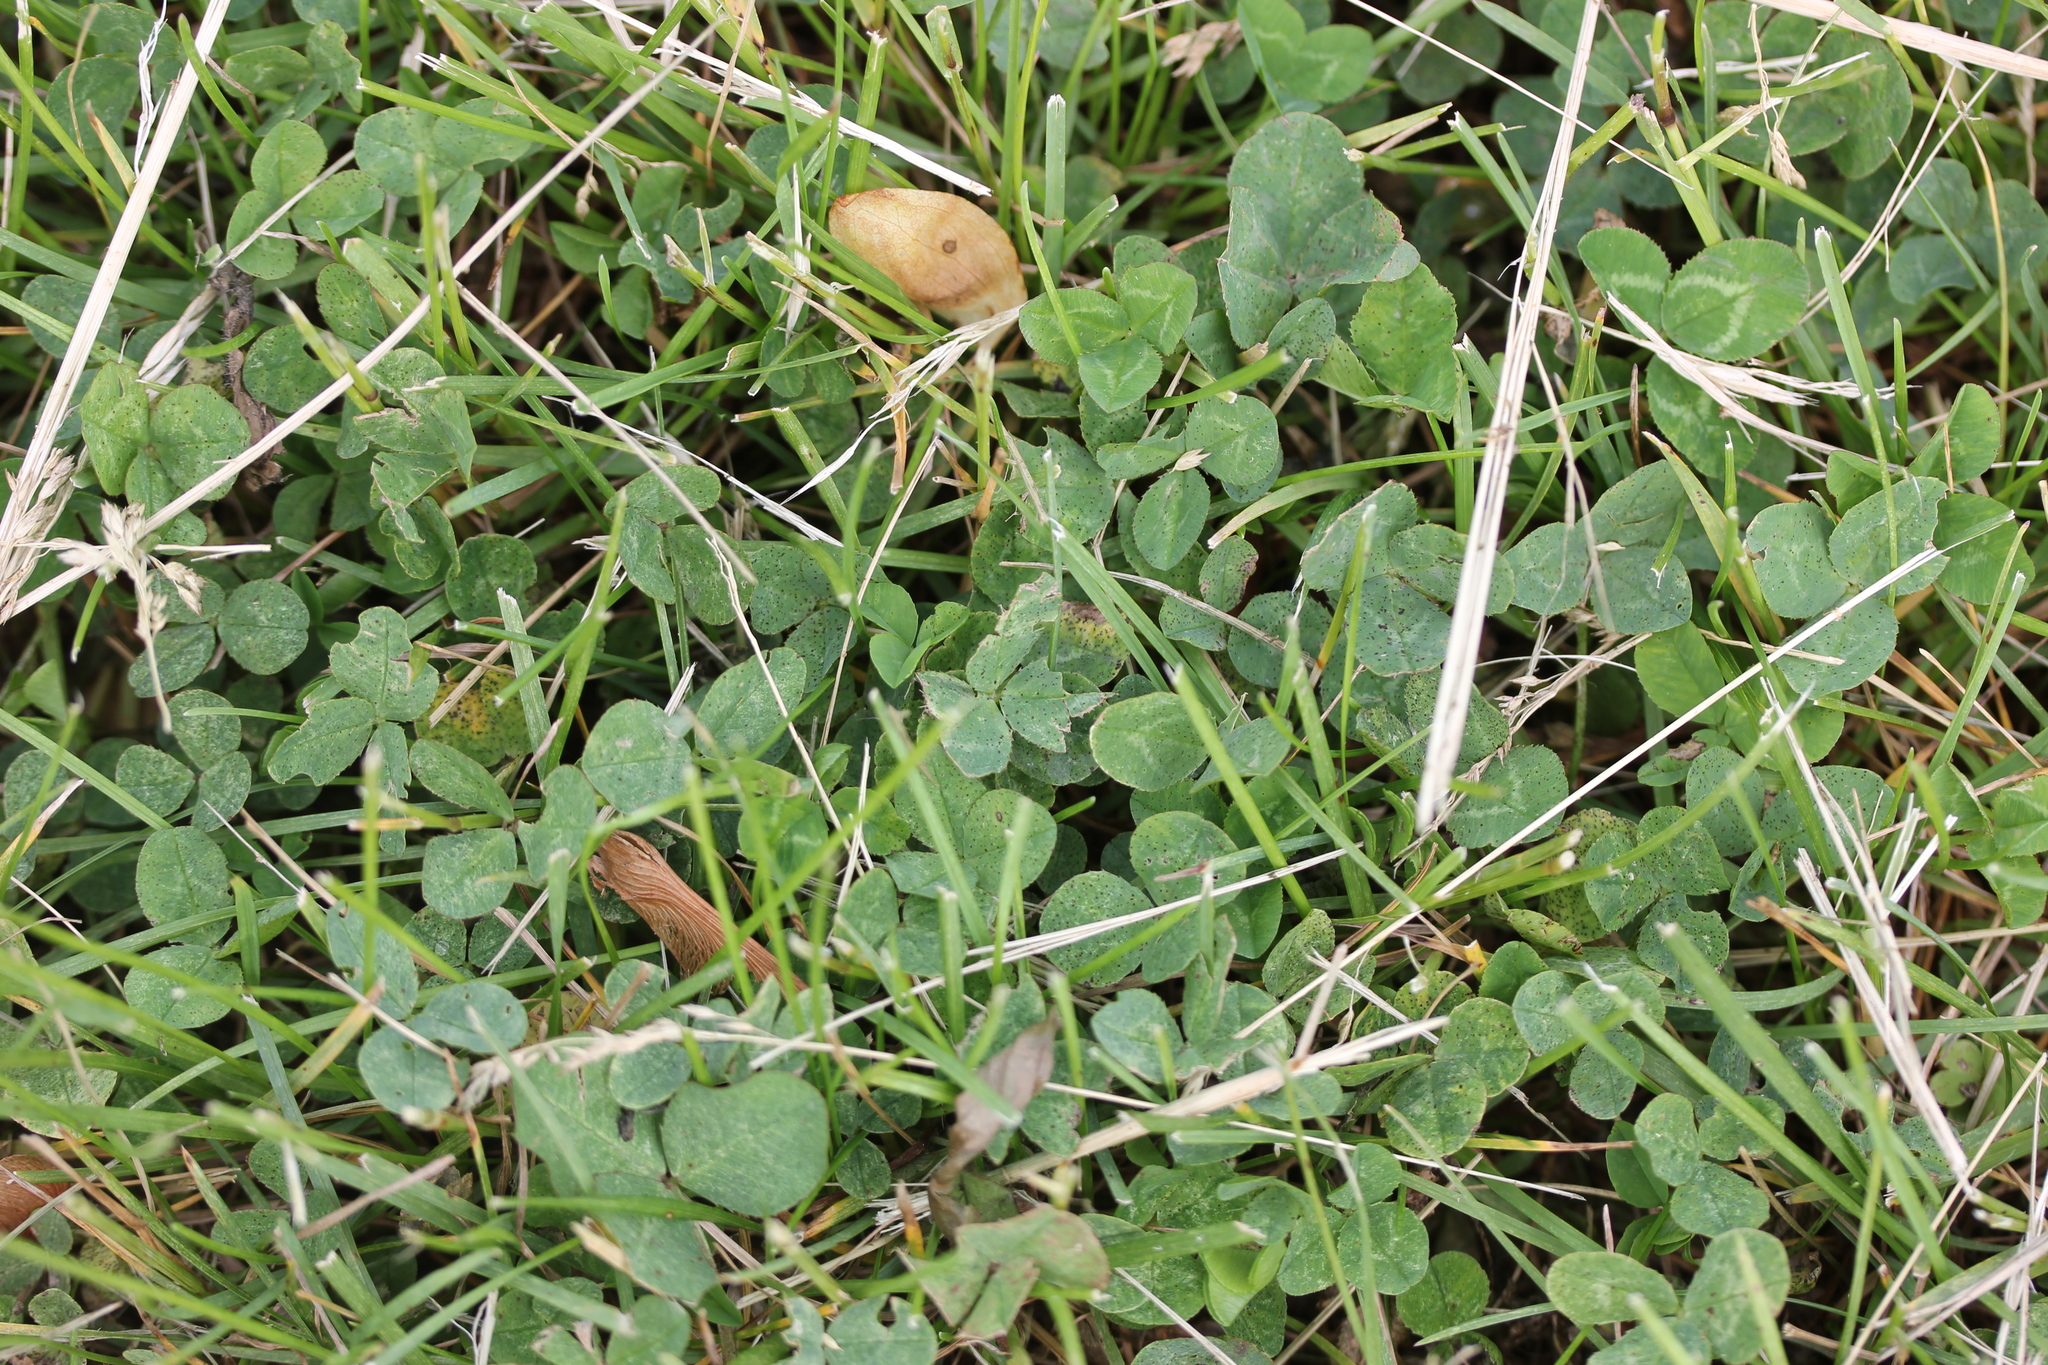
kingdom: Plantae
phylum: Tracheophyta
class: Magnoliopsida
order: Fabales
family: Fabaceae
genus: Trifolium
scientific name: Trifolium repens
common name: White clover
